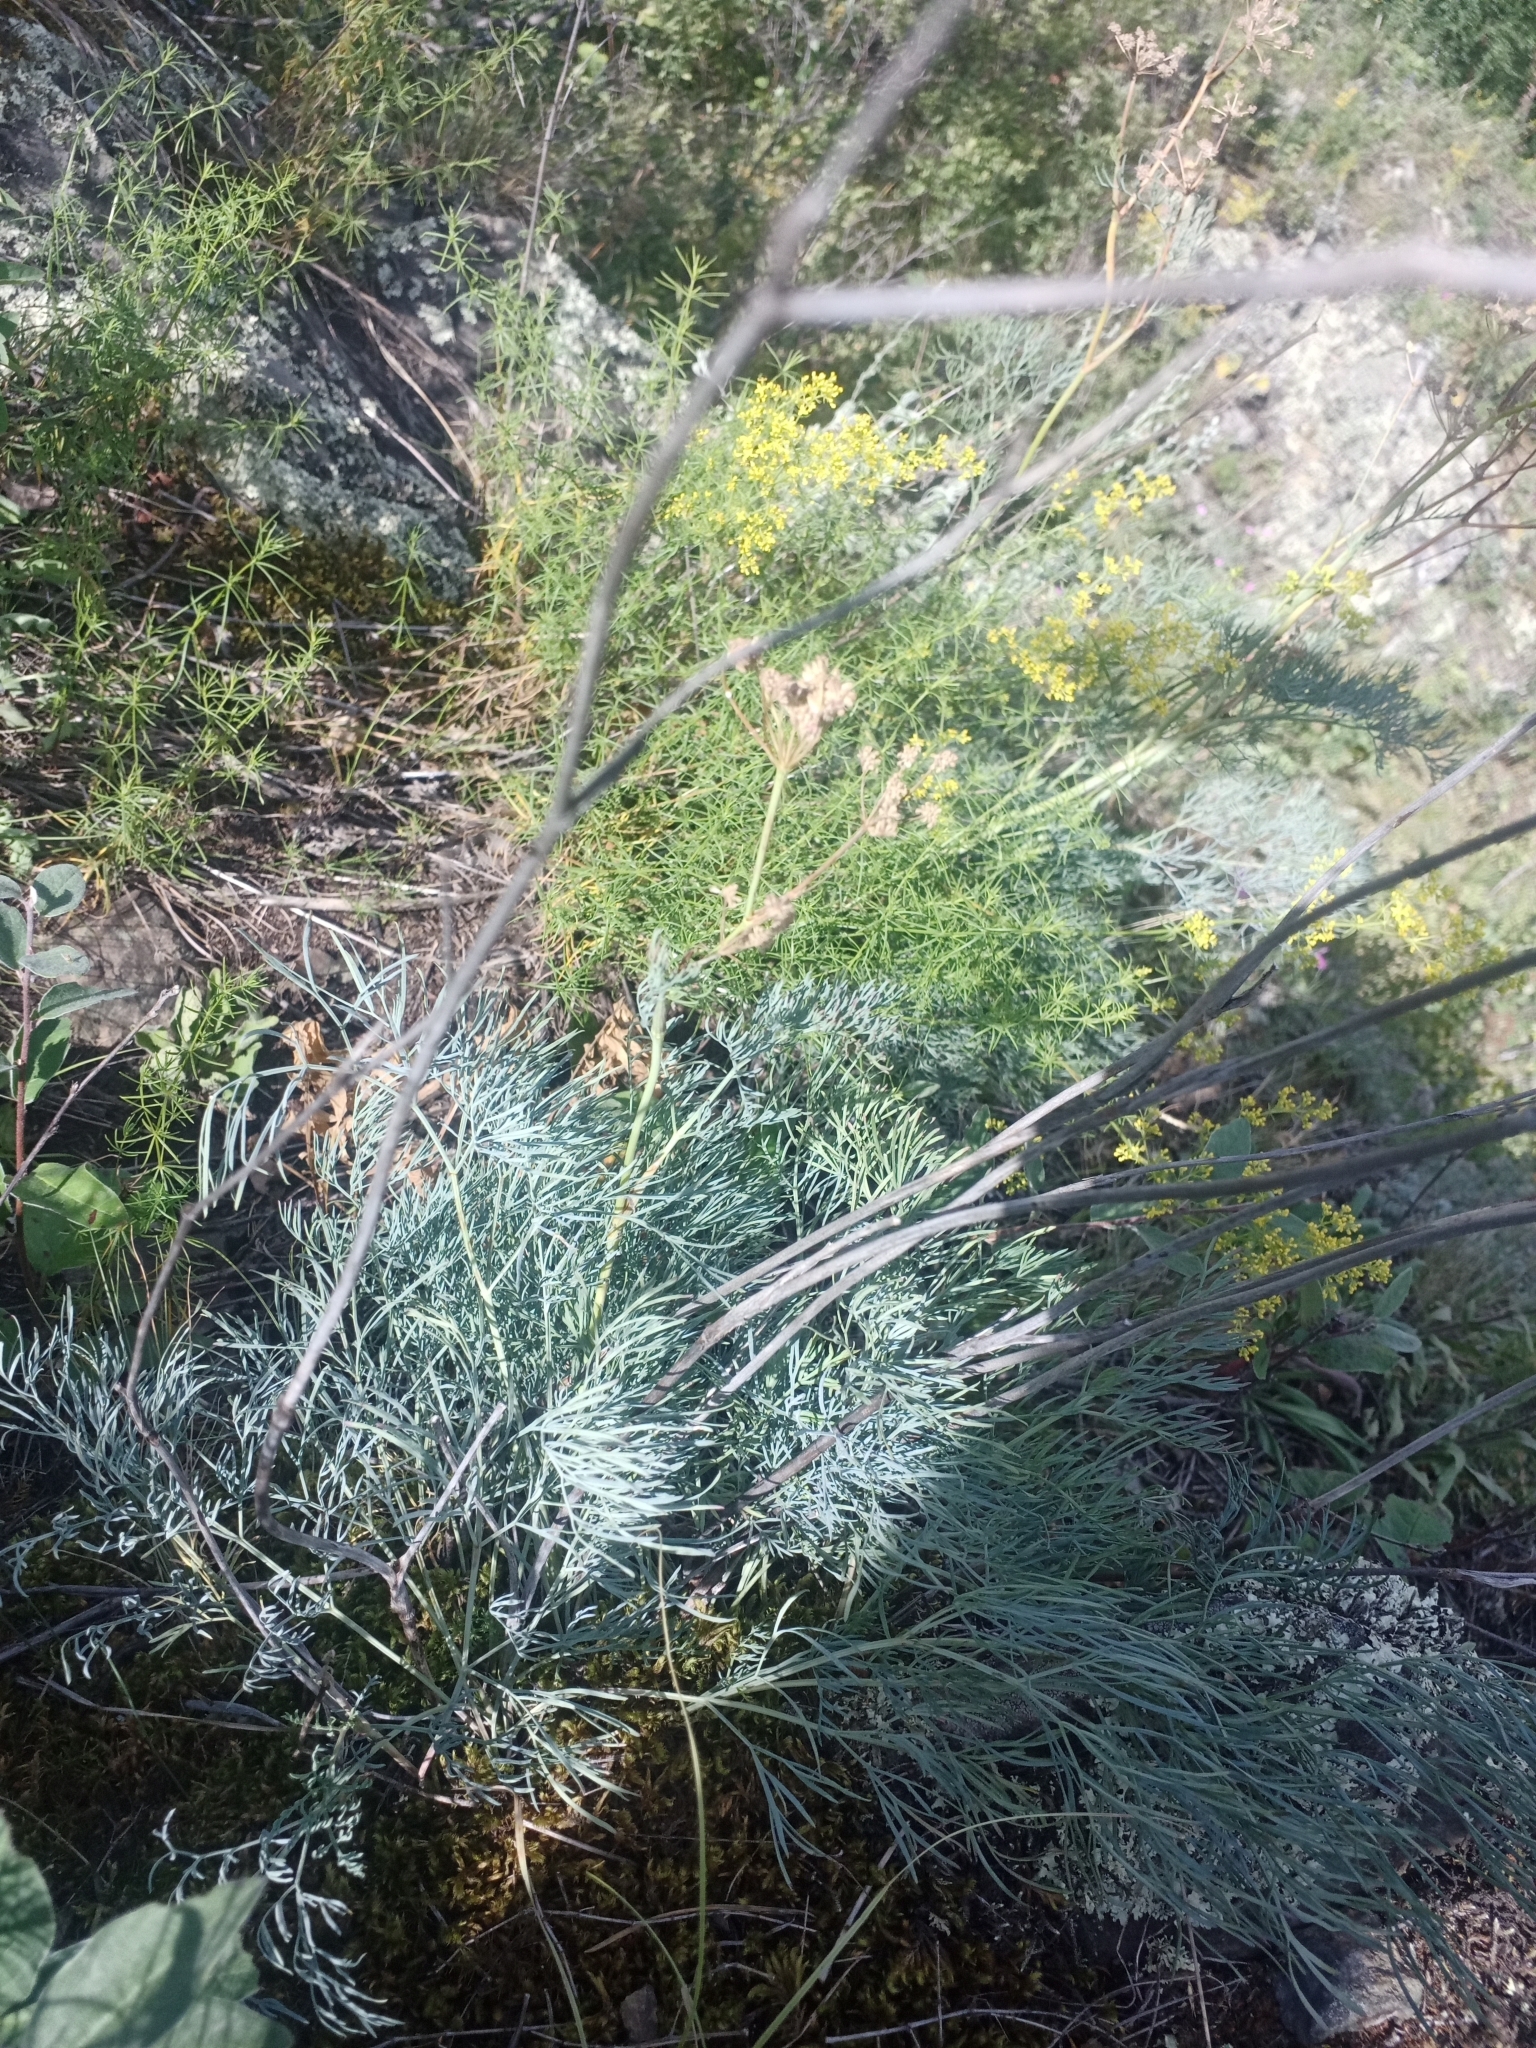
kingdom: Plantae
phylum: Tracheophyta
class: Magnoliopsida
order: Apiales
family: Apiaceae
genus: Seseli
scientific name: Seseli ledebourii
